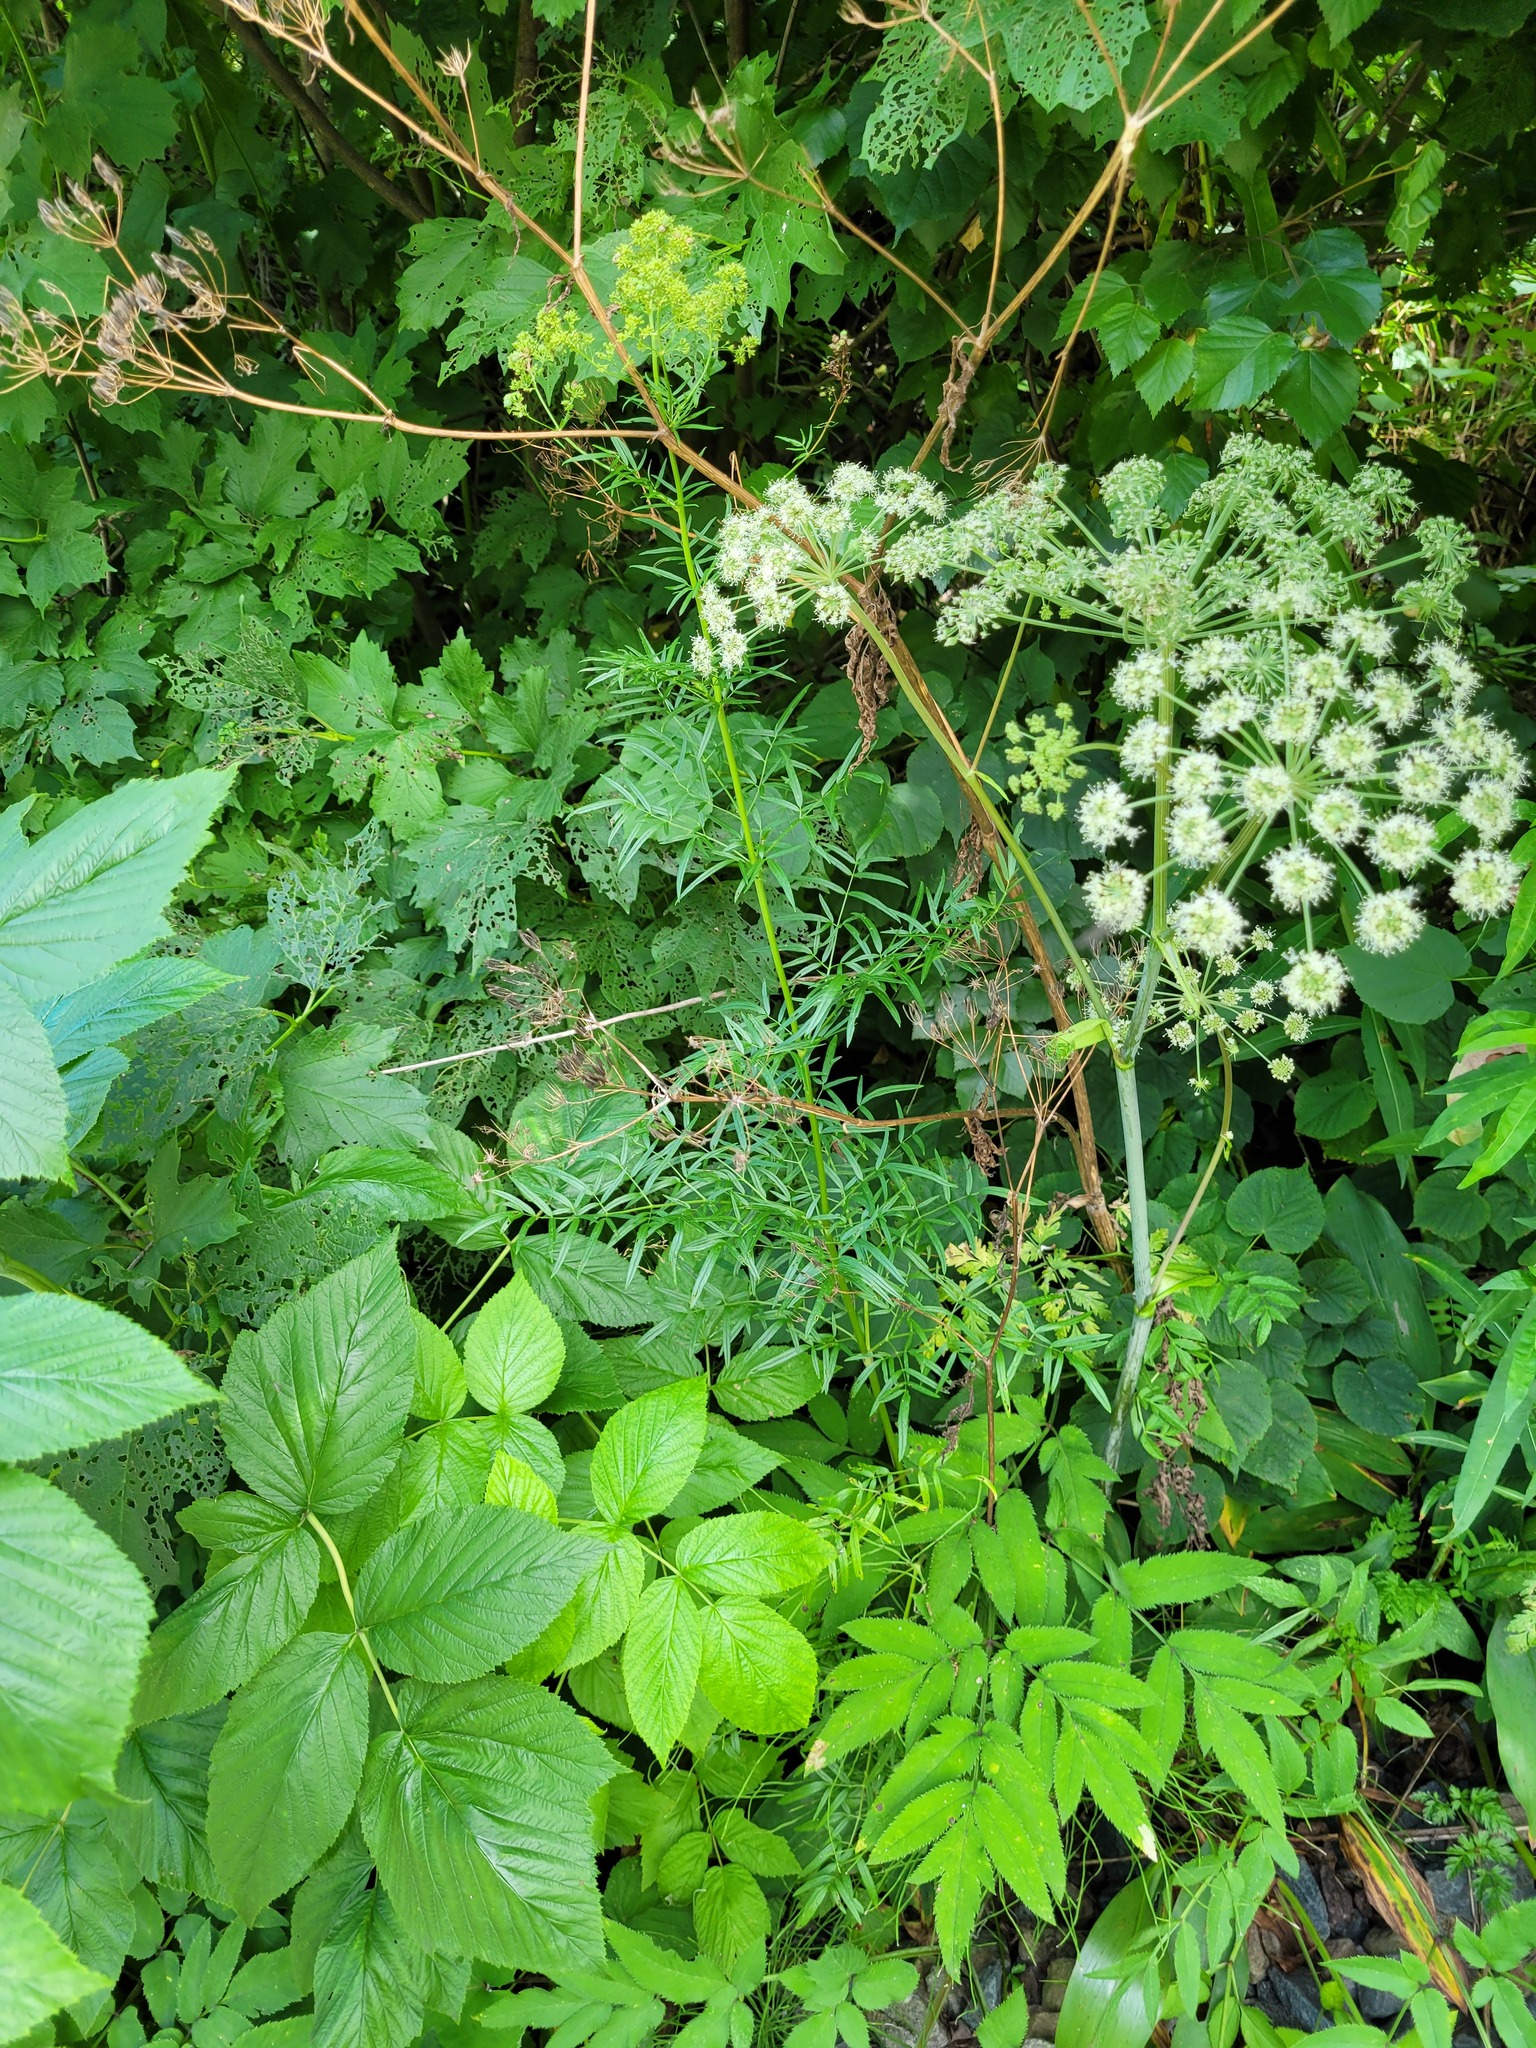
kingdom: Plantae
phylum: Tracheophyta
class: Magnoliopsida
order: Apiales
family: Apiaceae
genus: Angelica
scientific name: Angelica sylvestris
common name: Wild angelica
